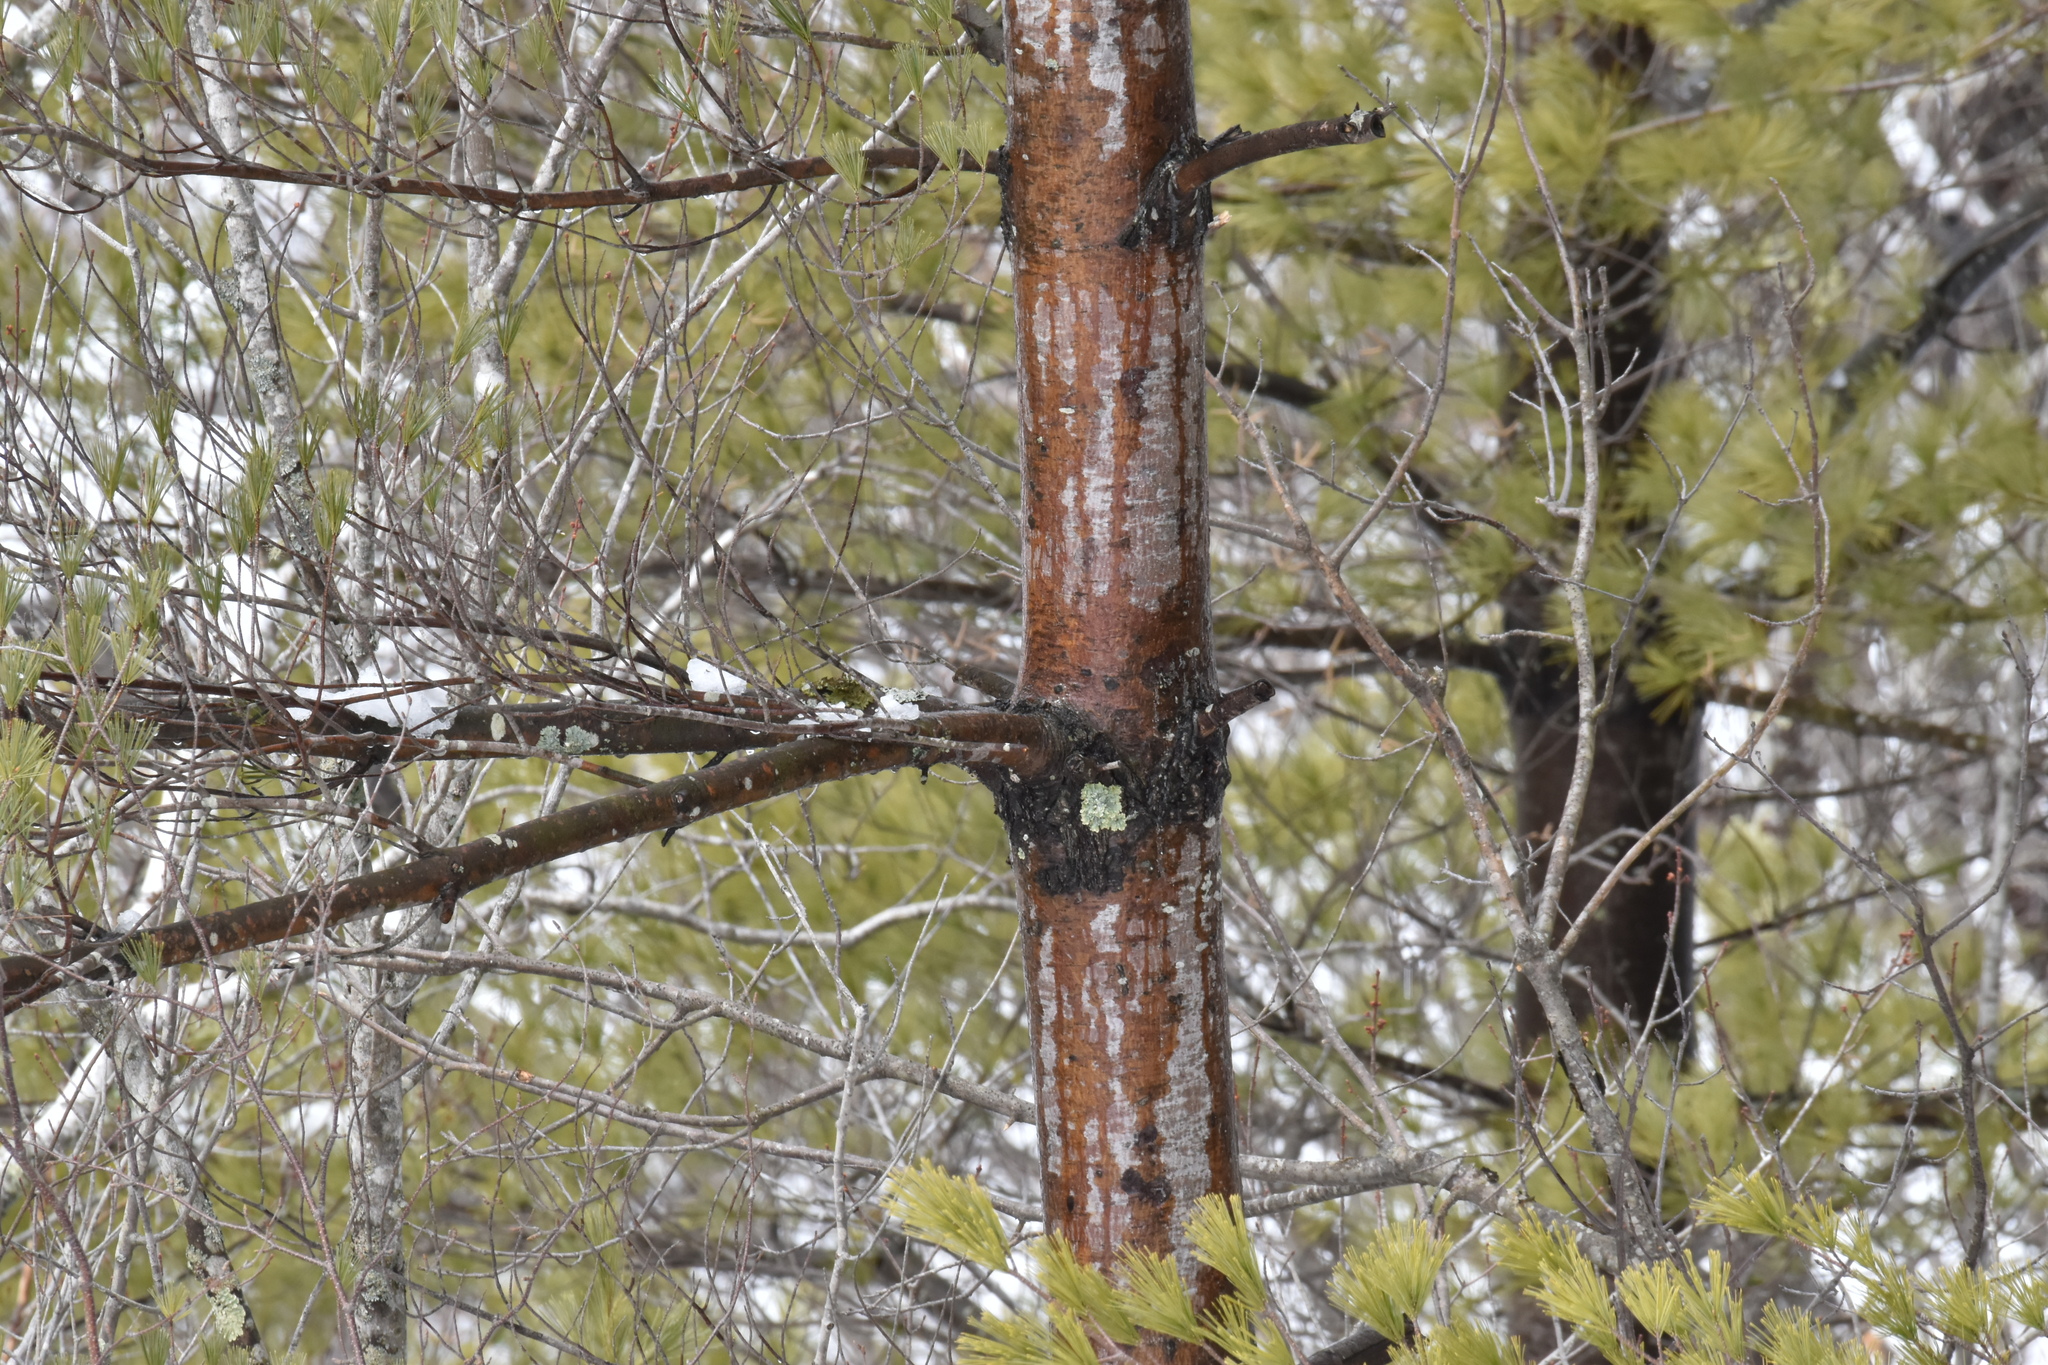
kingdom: Plantae
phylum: Tracheophyta
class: Pinopsida
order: Pinales
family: Pinaceae
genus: Pinus
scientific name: Pinus strobus
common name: Weymouth pine
